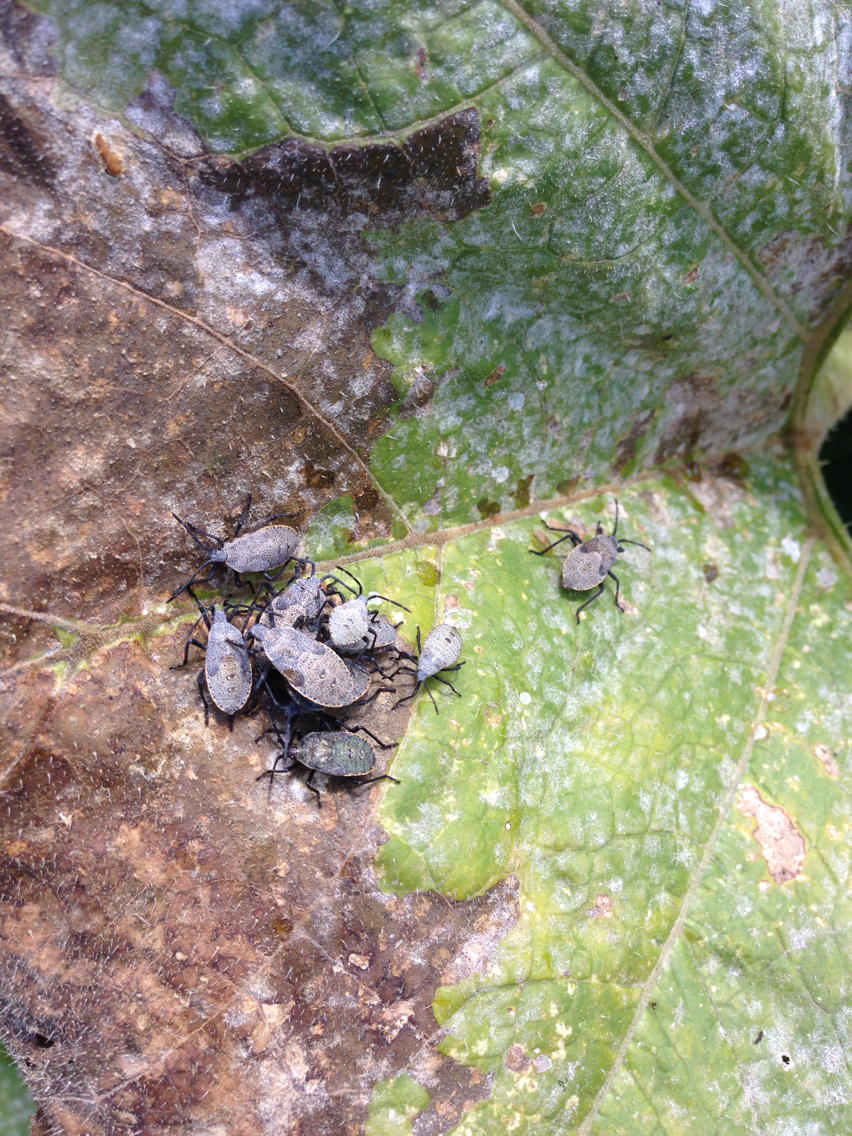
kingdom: Animalia
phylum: Arthropoda
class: Insecta
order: Hemiptera
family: Coreidae
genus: Anasa
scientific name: Anasa tristis
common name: Squash bug
